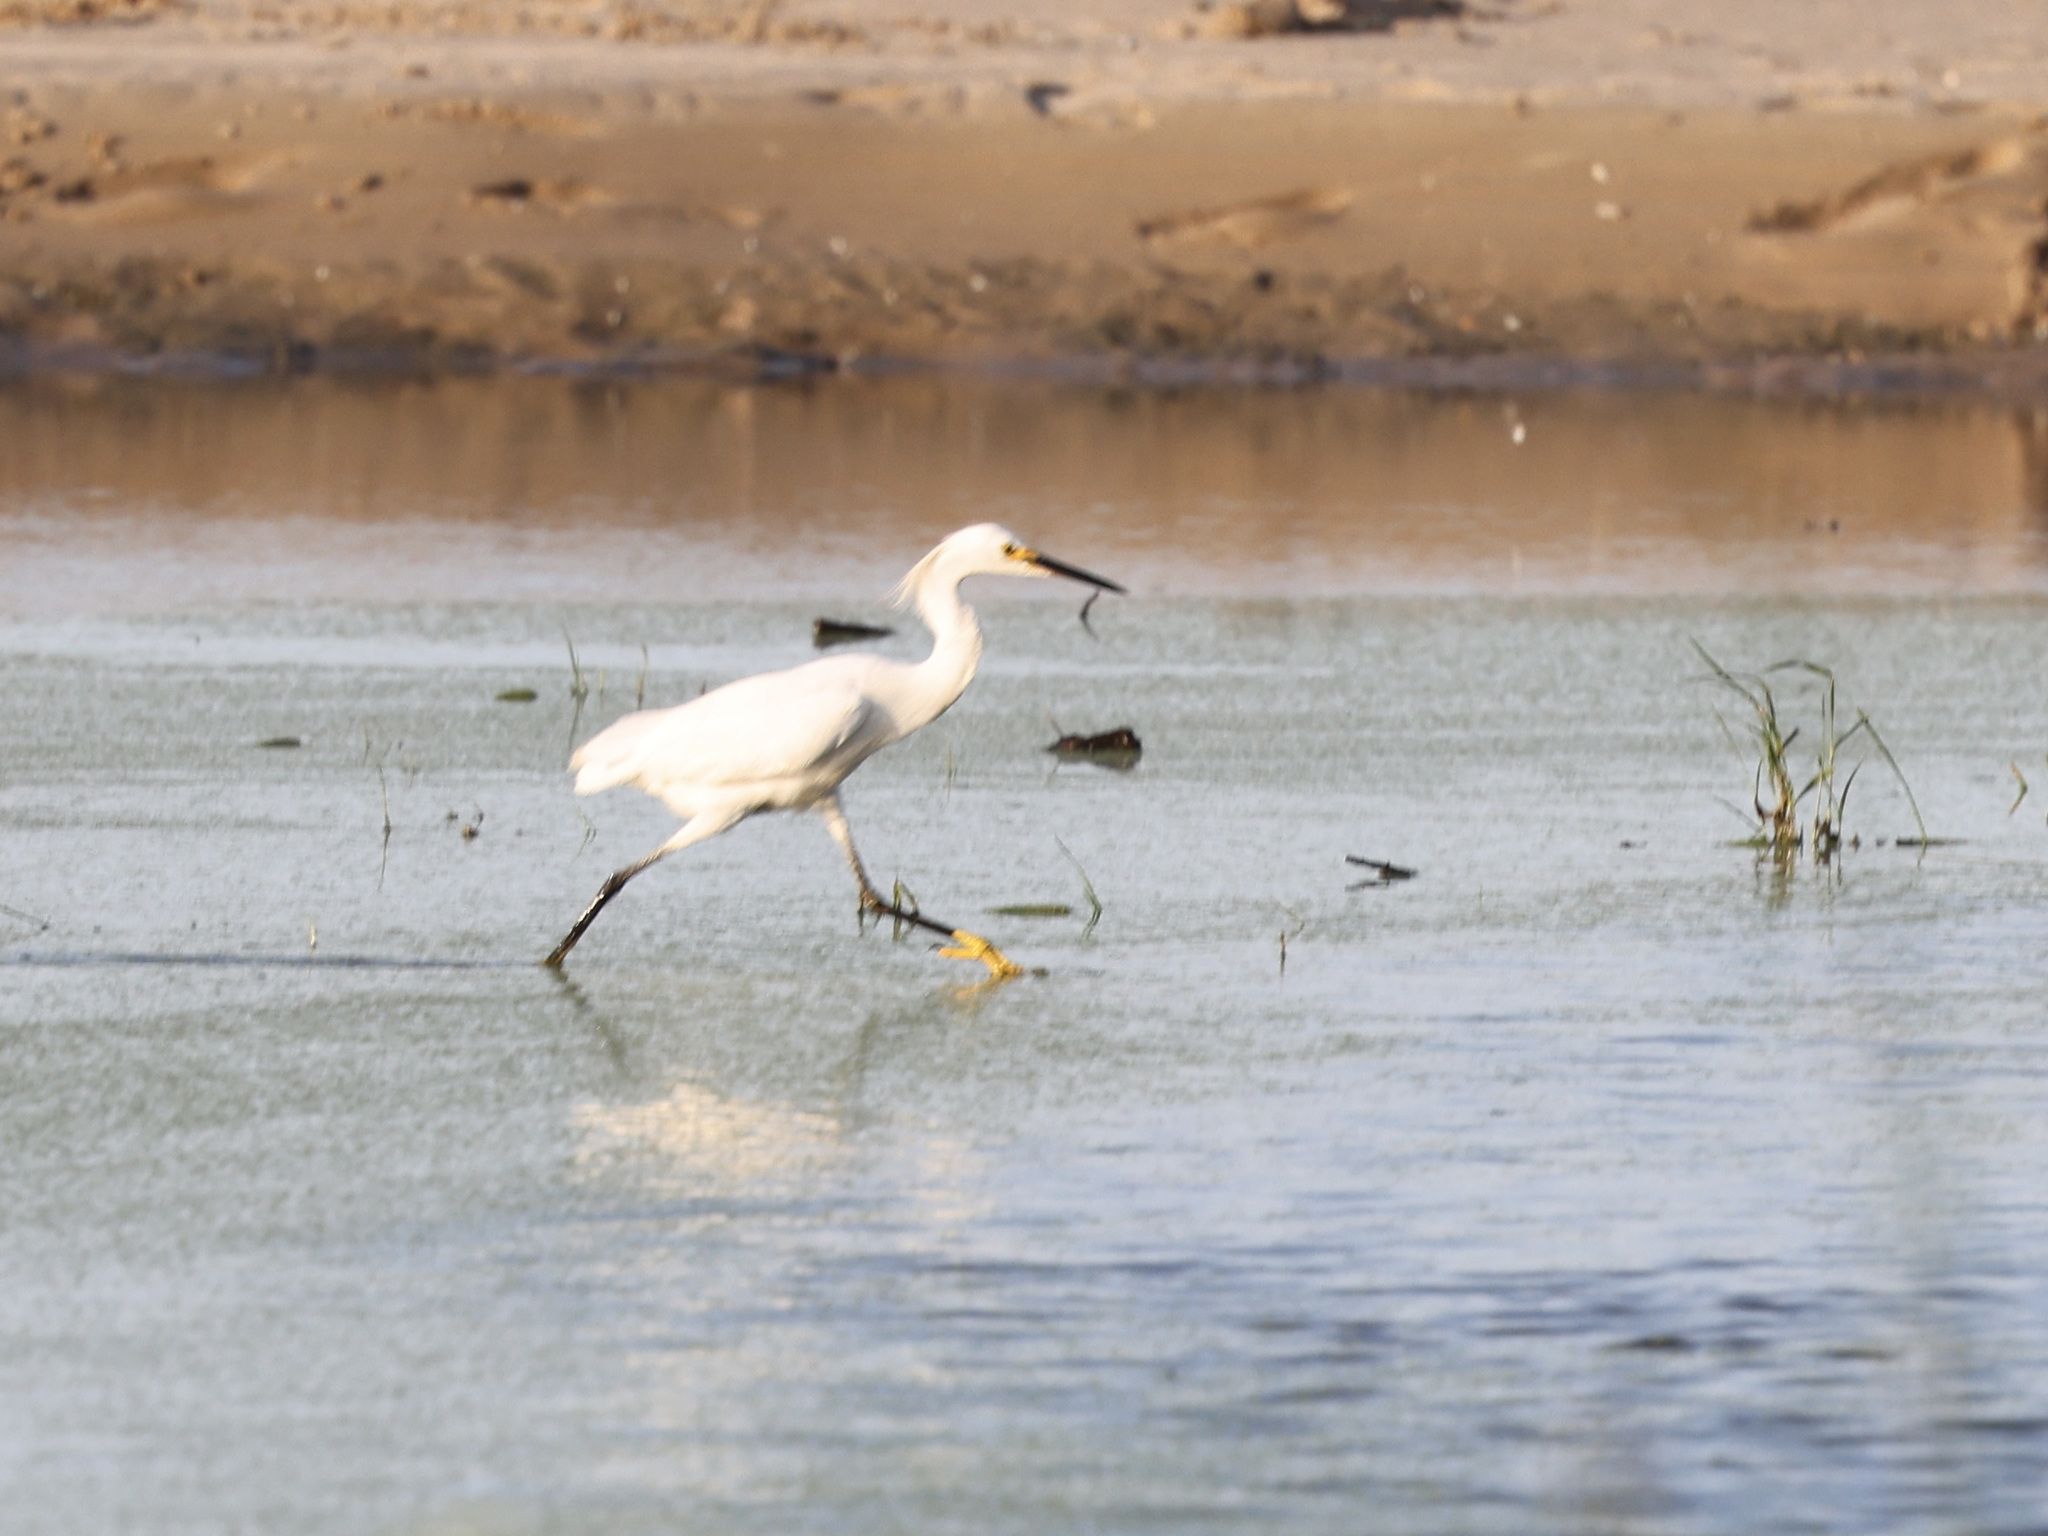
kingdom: Animalia
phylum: Chordata
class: Aves
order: Pelecaniformes
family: Ardeidae
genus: Egretta
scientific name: Egretta thula
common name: Snowy egret
